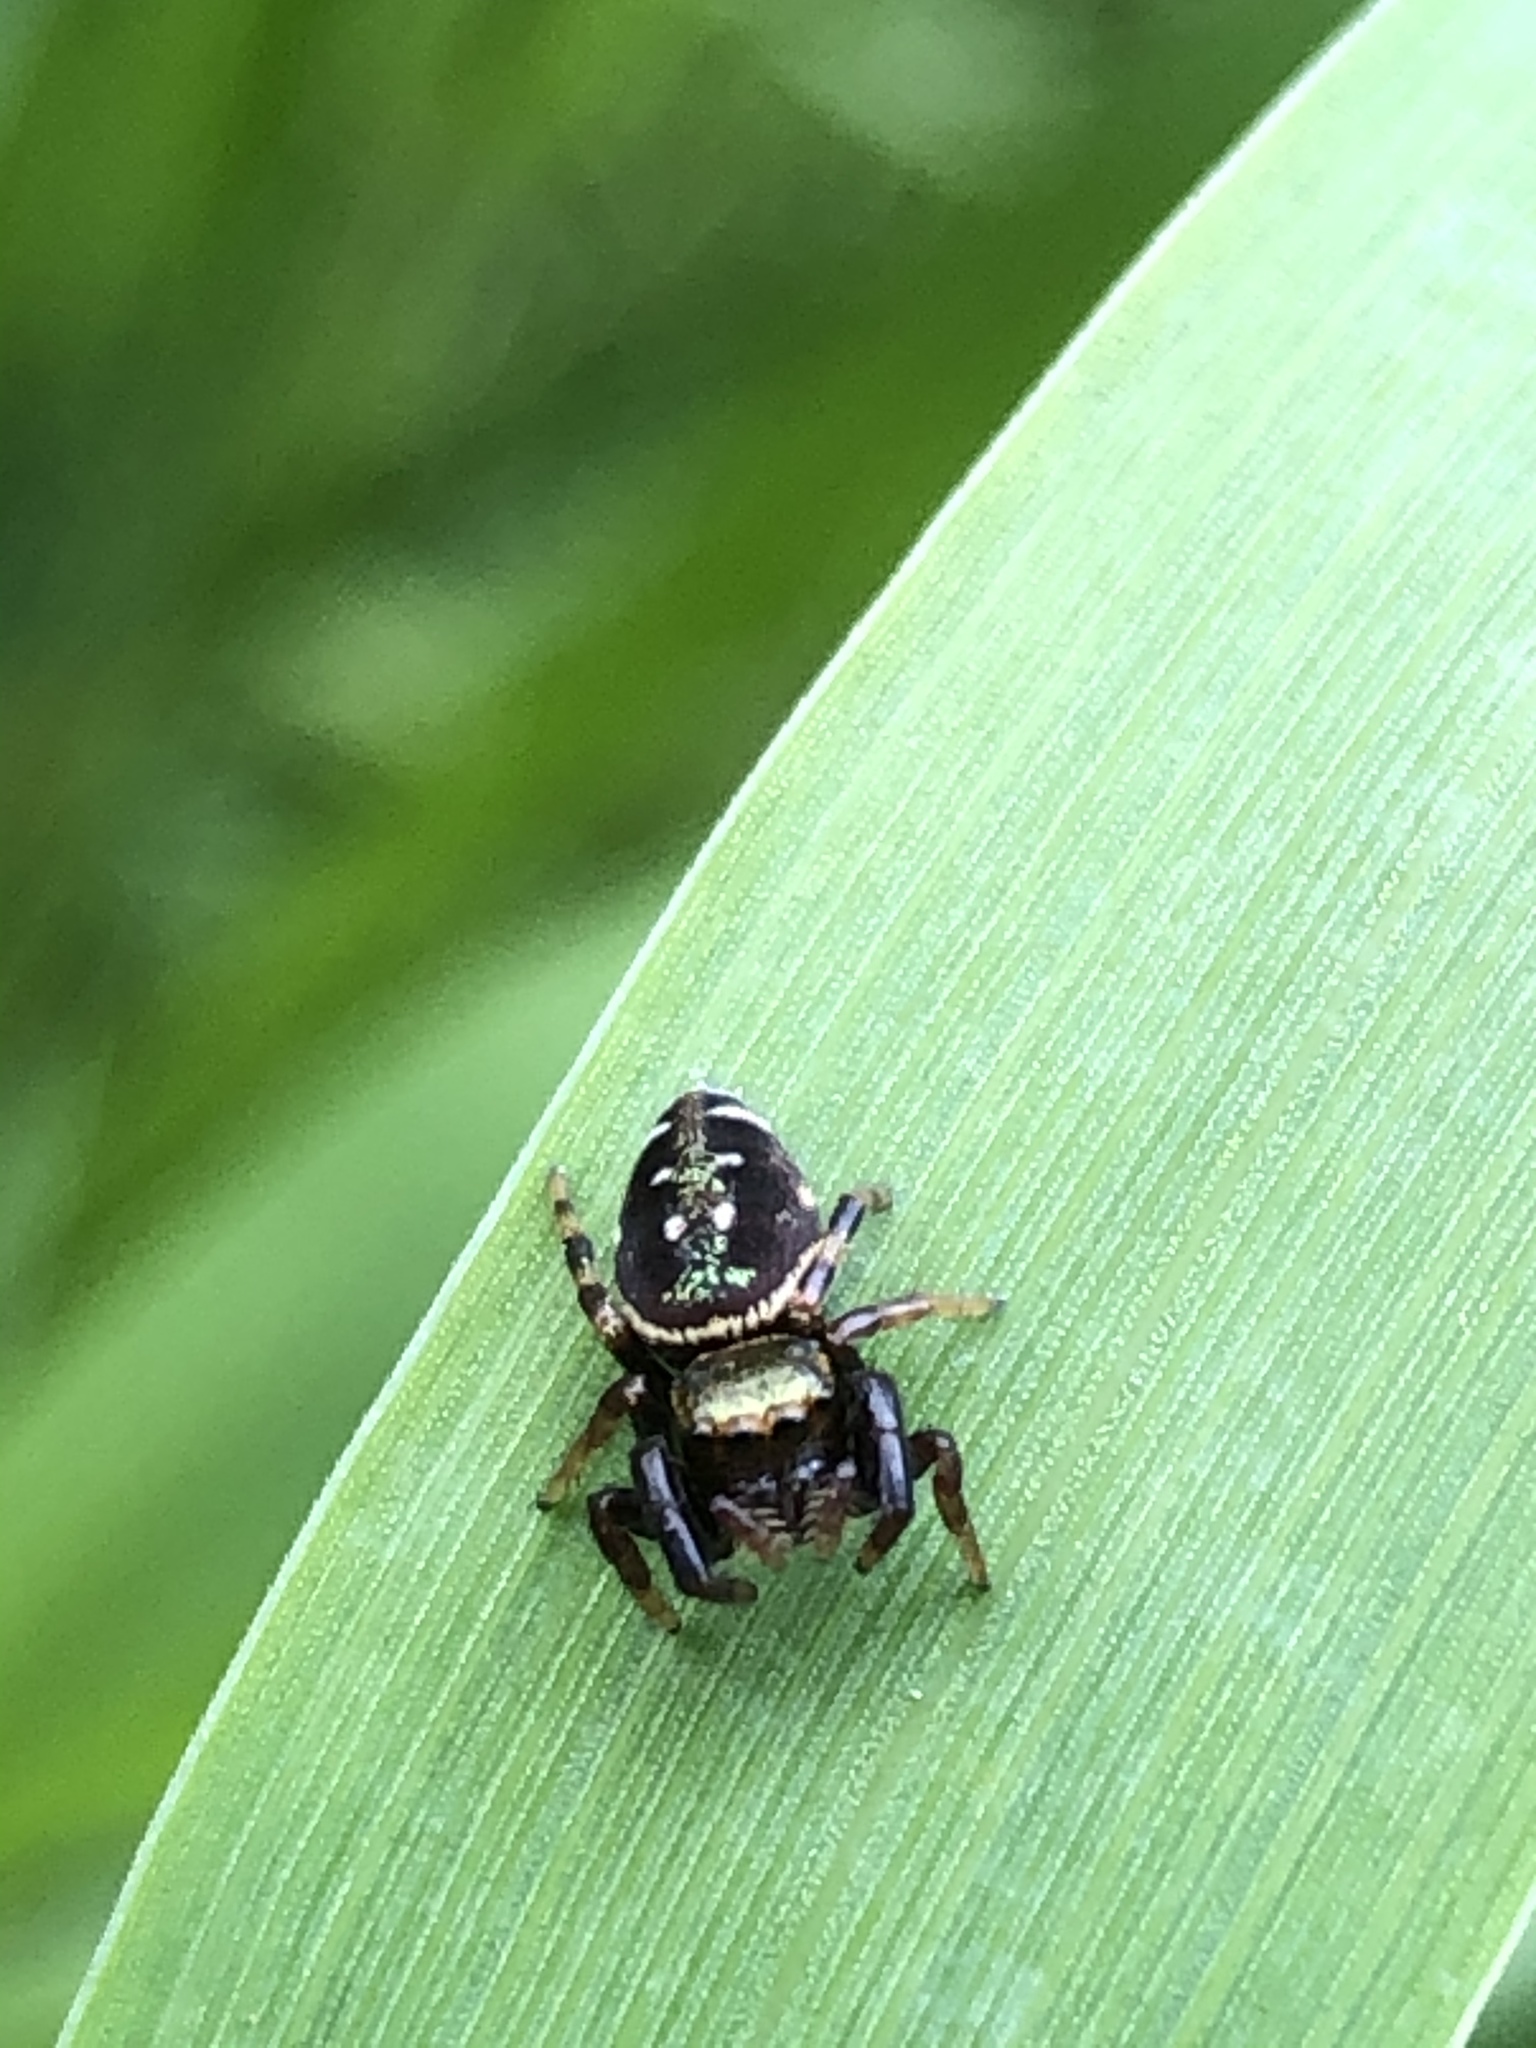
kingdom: Animalia
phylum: Arthropoda
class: Arachnida
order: Araneae
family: Salticidae
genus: Paraphidippus
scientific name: Paraphidippus aurantius
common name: Jumping spiders
